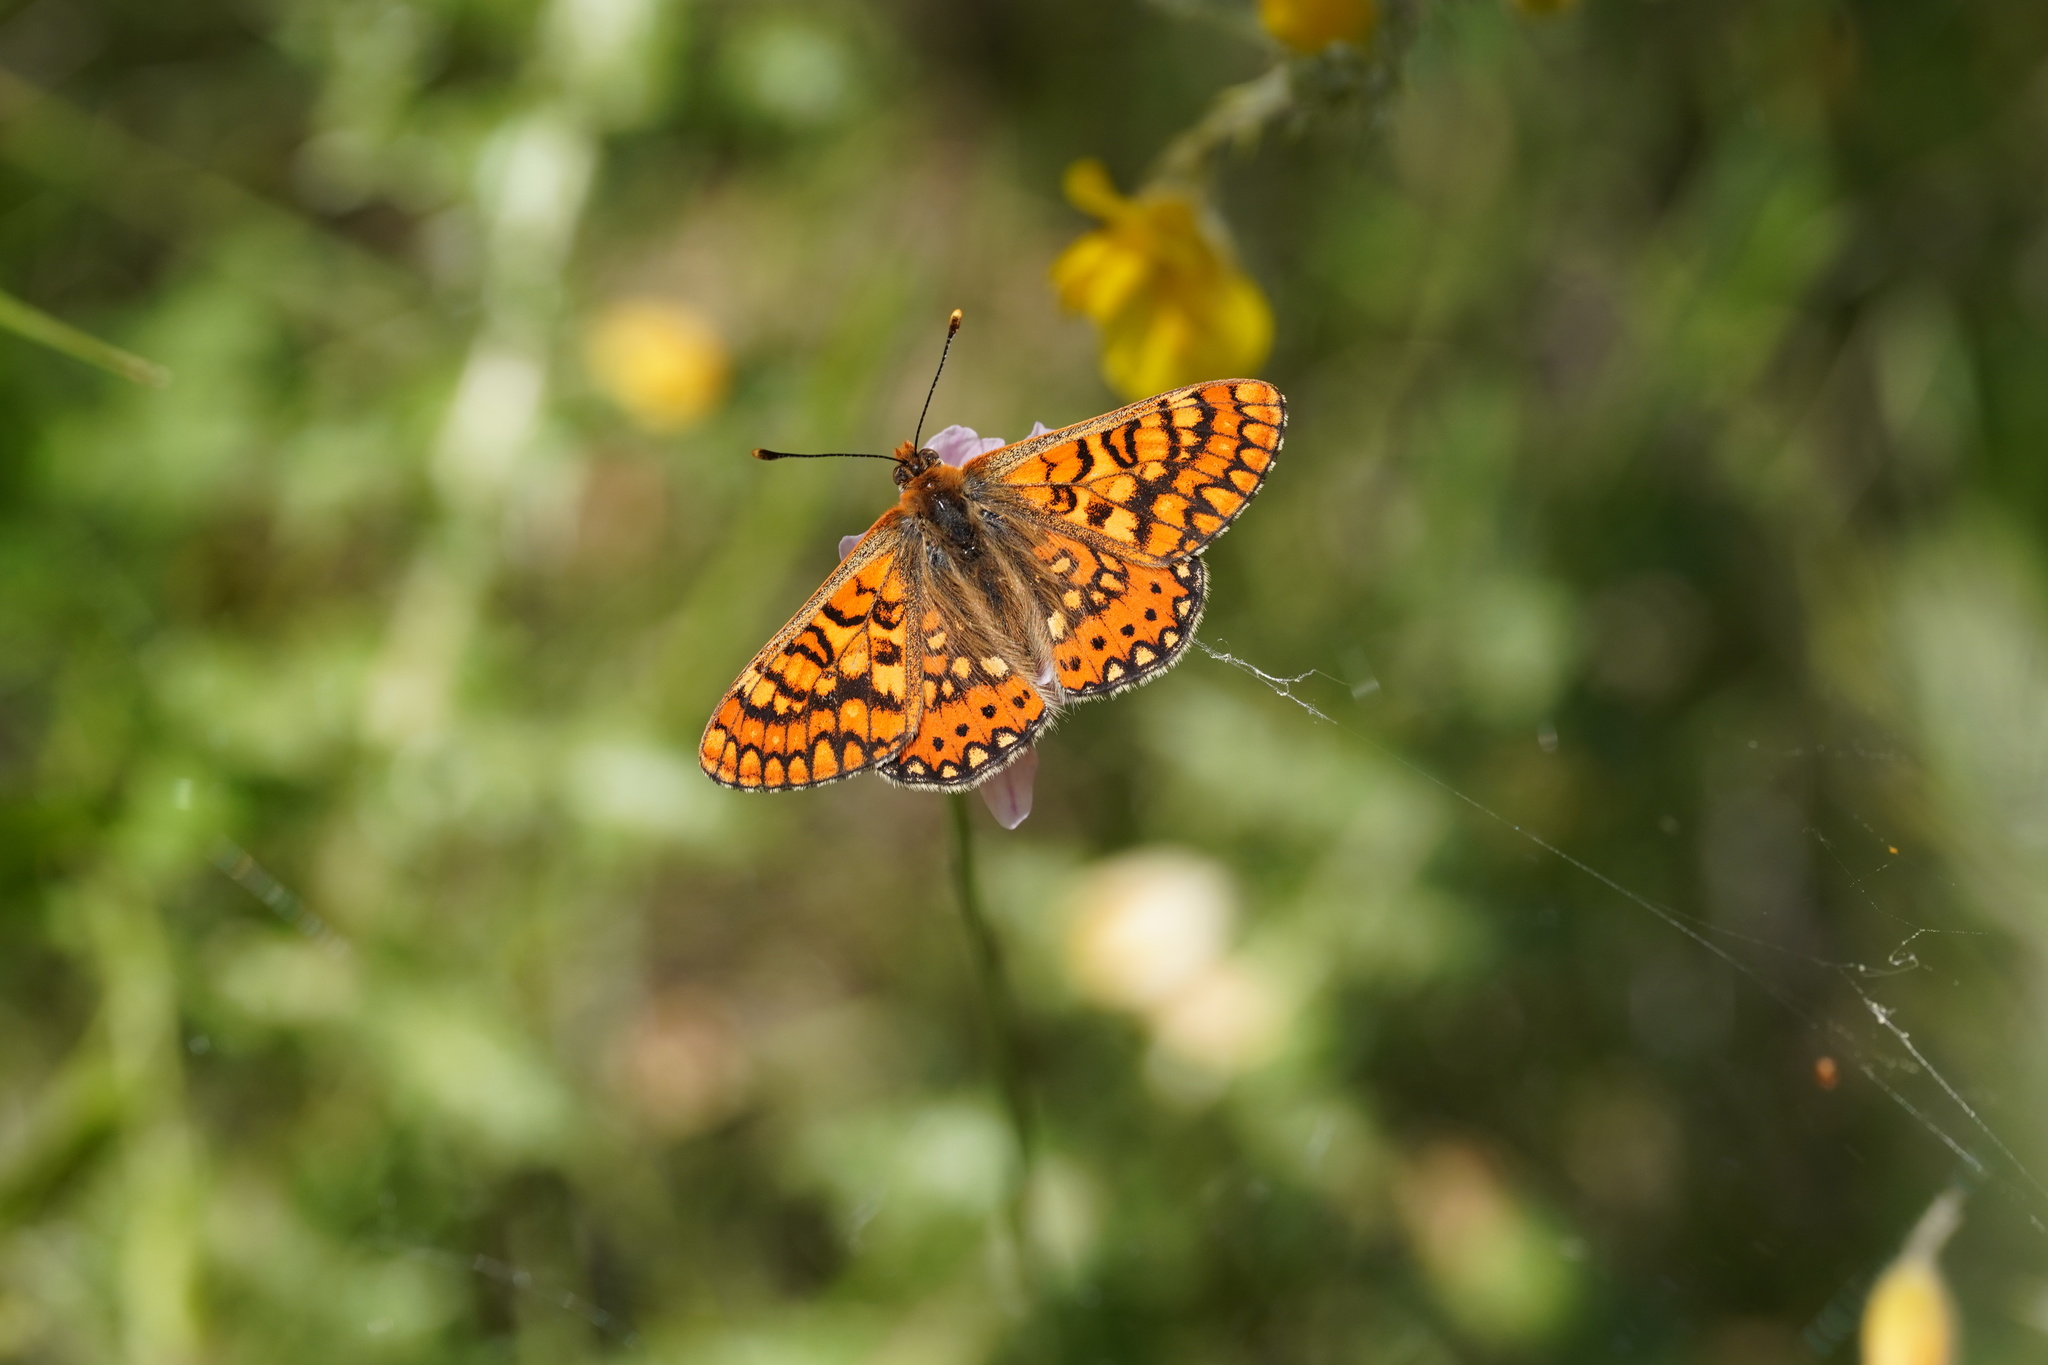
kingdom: Animalia
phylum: Arthropoda
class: Insecta
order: Lepidoptera
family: Nymphalidae
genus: Euphydryas
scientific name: Euphydryas aurinia
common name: Marsh fritillary
